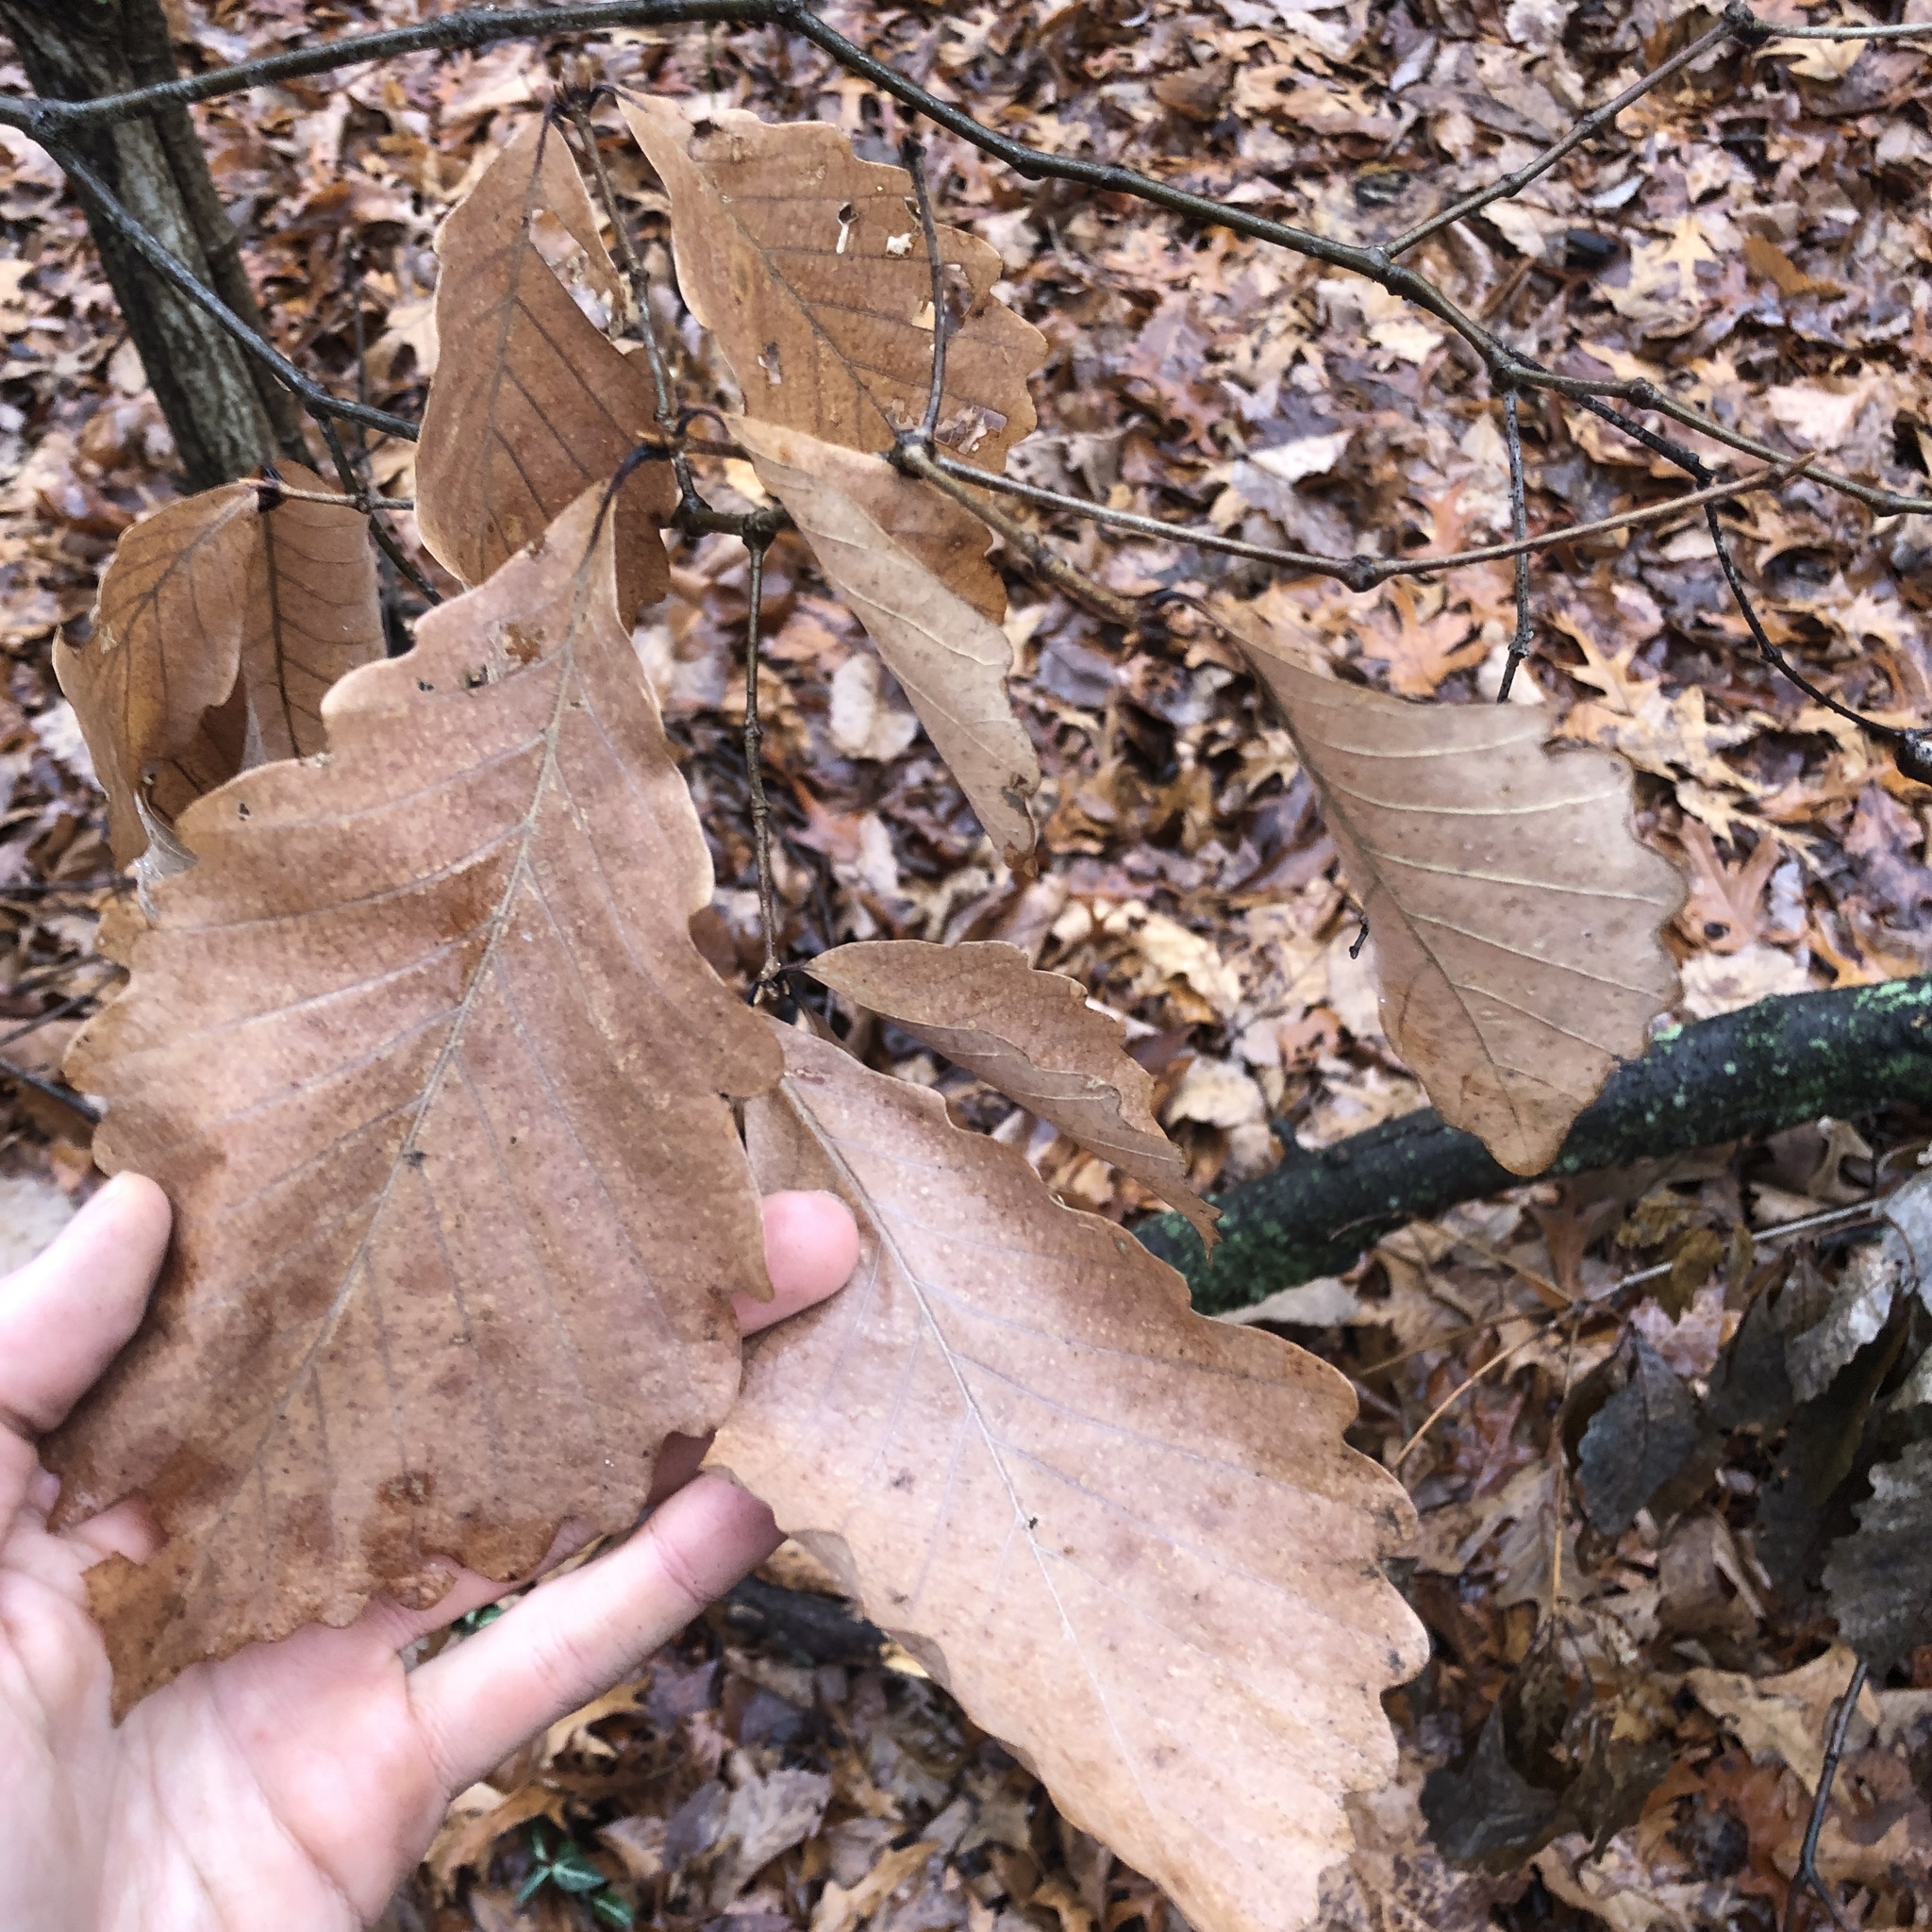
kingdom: Plantae
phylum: Tracheophyta
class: Magnoliopsida
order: Fagales
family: Fagaceae
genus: Quercus
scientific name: Quercus montana
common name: Chestnut oak
